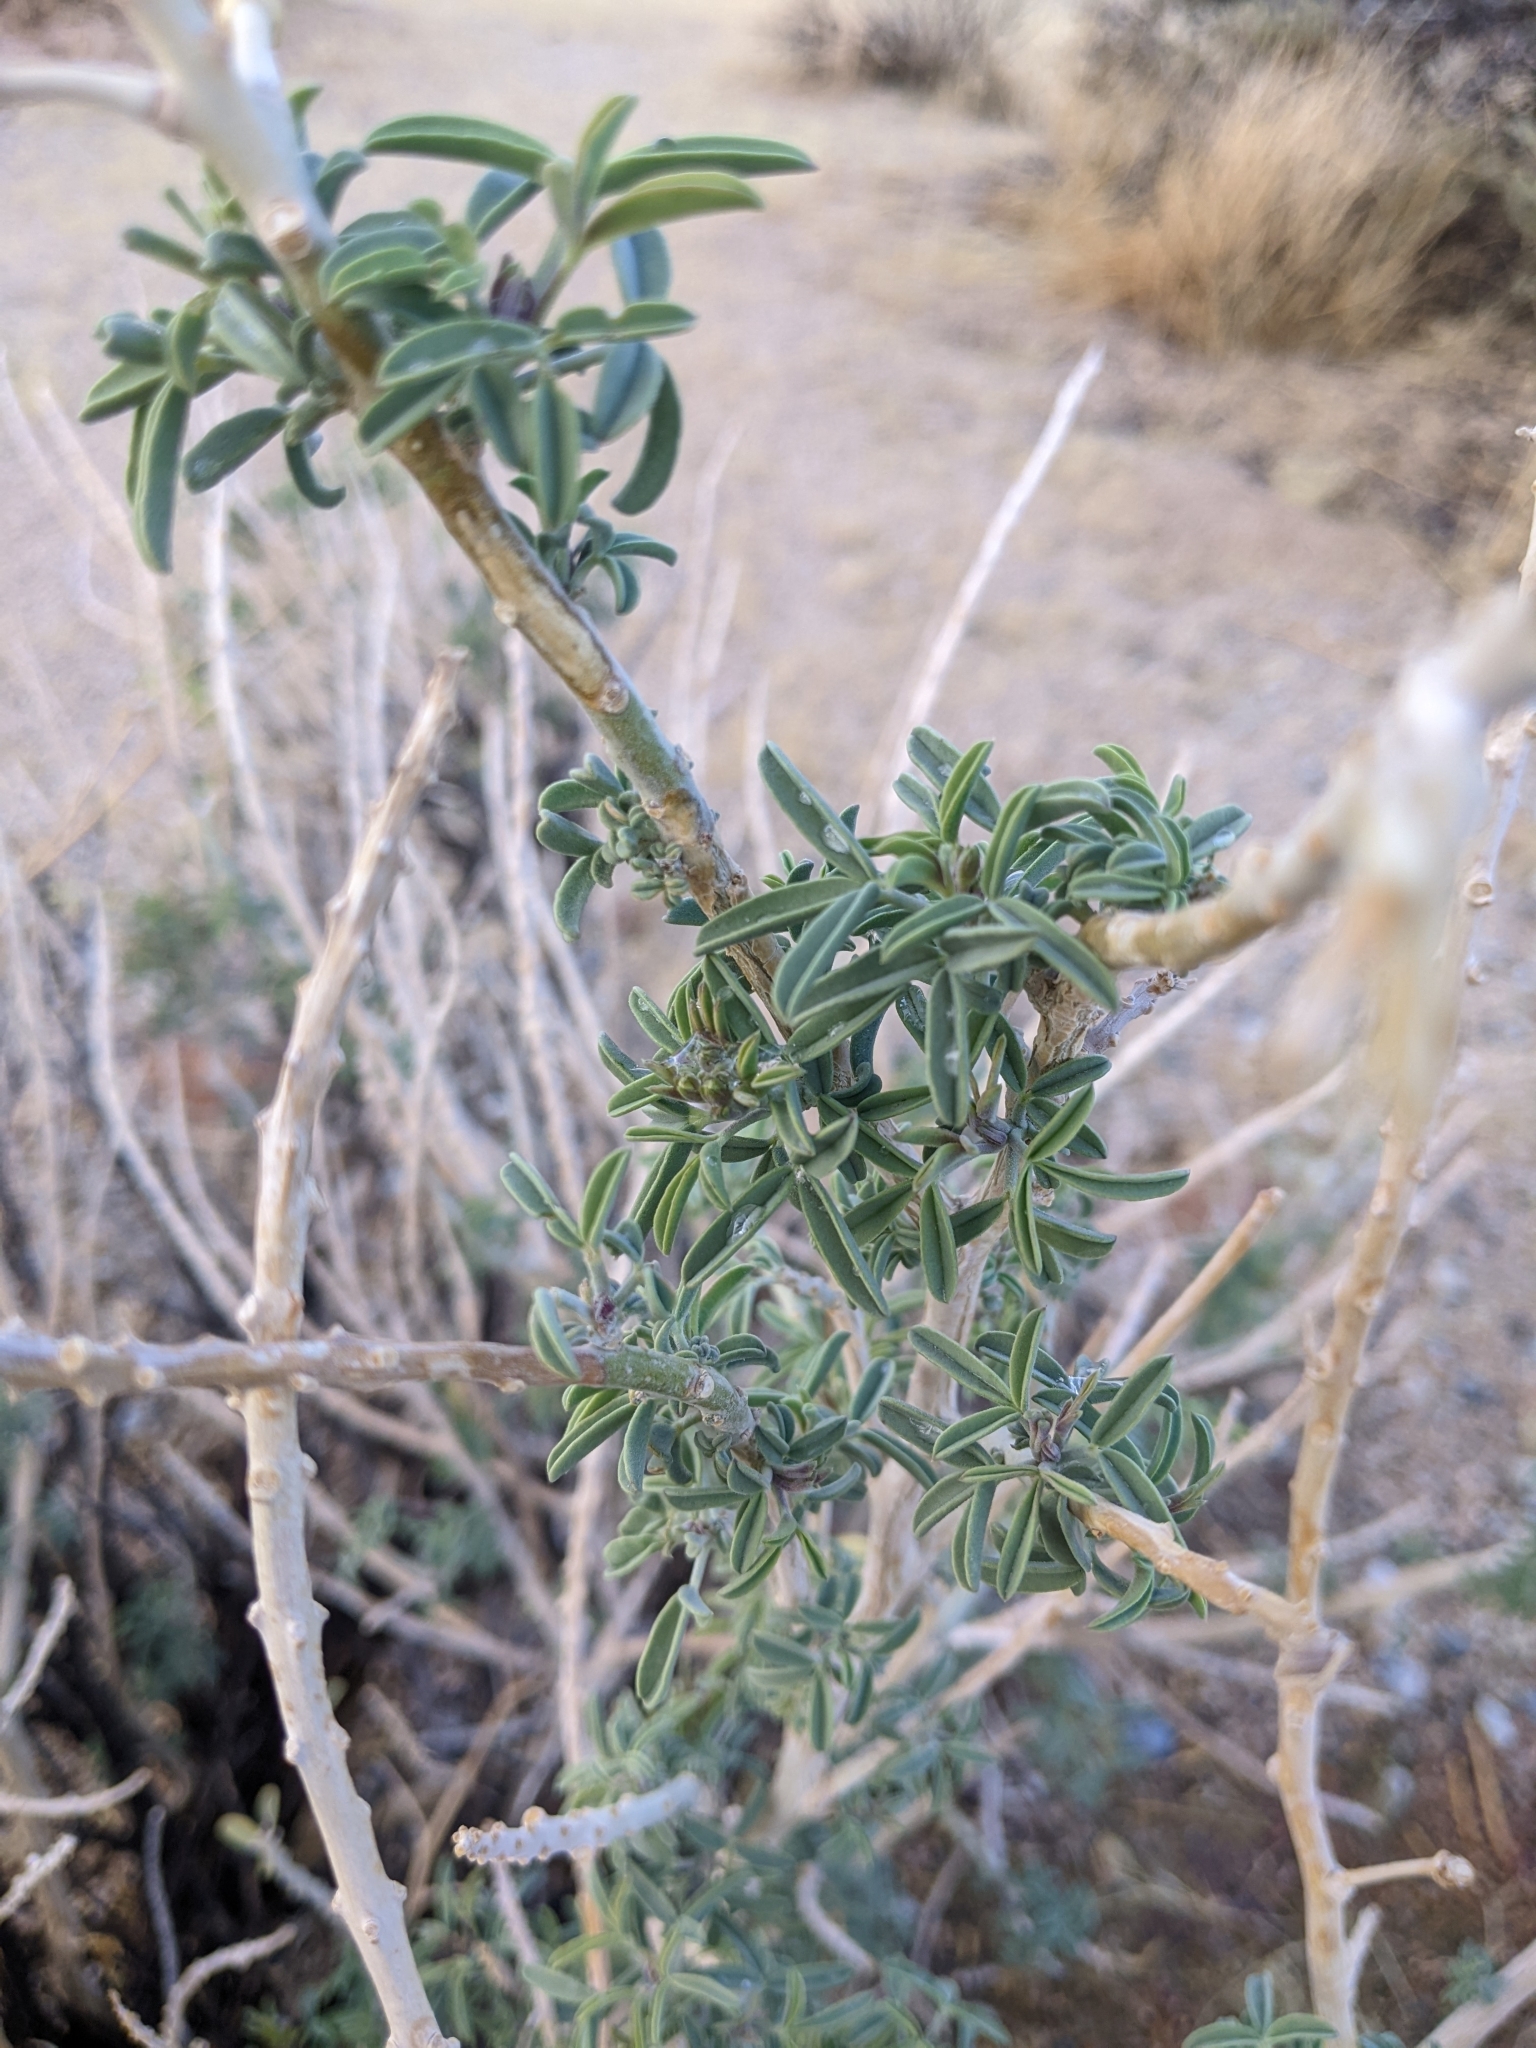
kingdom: Plantae
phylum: Tracheophyta
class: Magnoliopsida
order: Brassicales
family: Cleomaceae
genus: Cleomella
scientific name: Cleomella arborea
